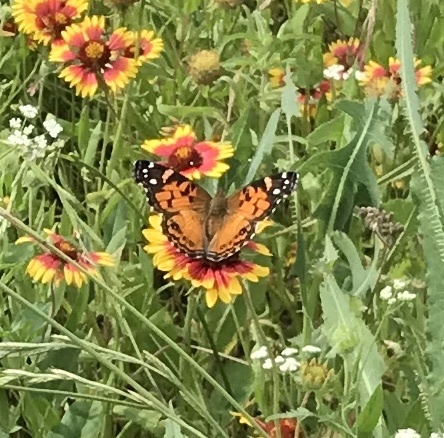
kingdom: Animalia
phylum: Arthropoda
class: Insecta
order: Lepidoptera
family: Nymphalidae
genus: Vanessa
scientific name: Vanessa virginiensis
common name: American lady
